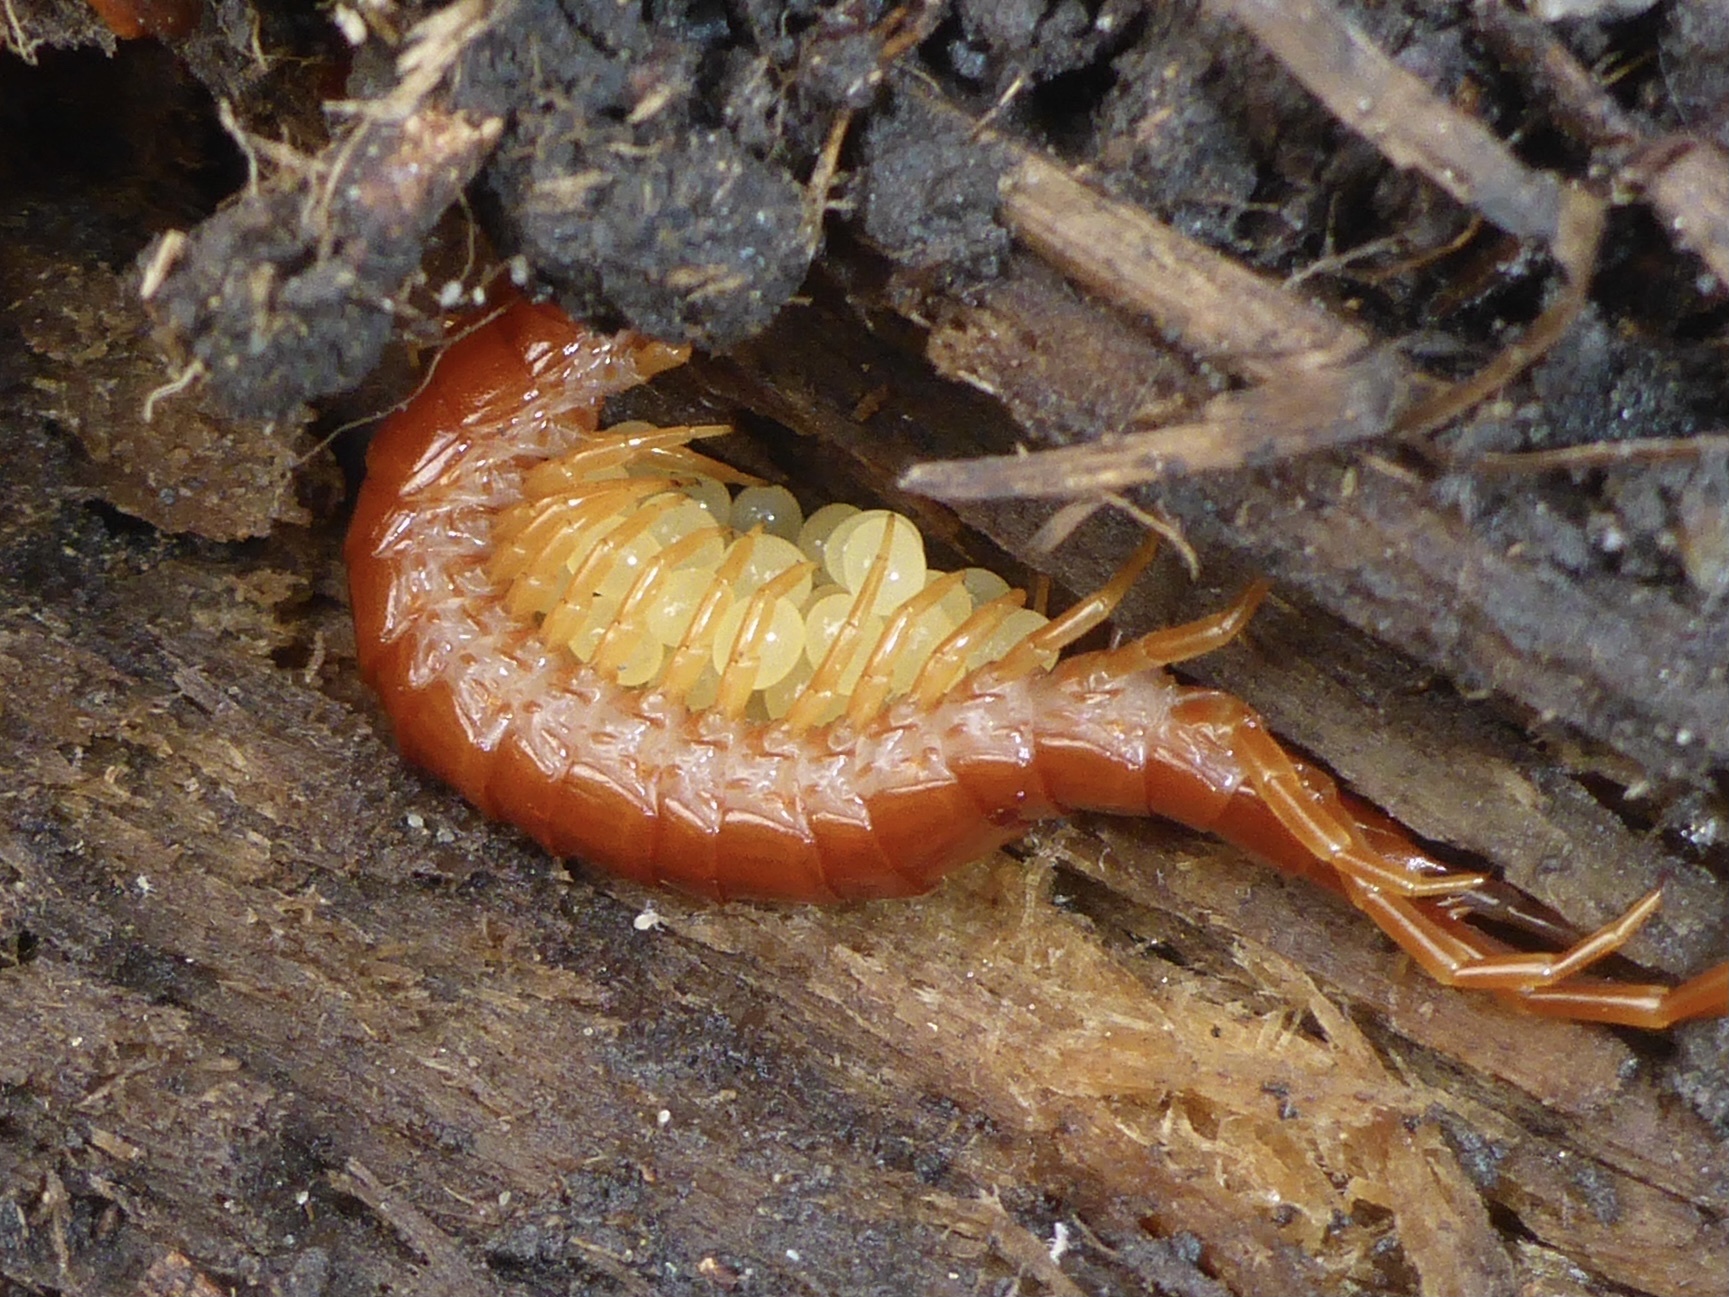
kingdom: Animalia
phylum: Arthropoda
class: Chilopoda
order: Scolopendromorpha
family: Scolopocryptopidae
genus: Scolopocryptops
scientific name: Scolopocryptops spinicaudus
